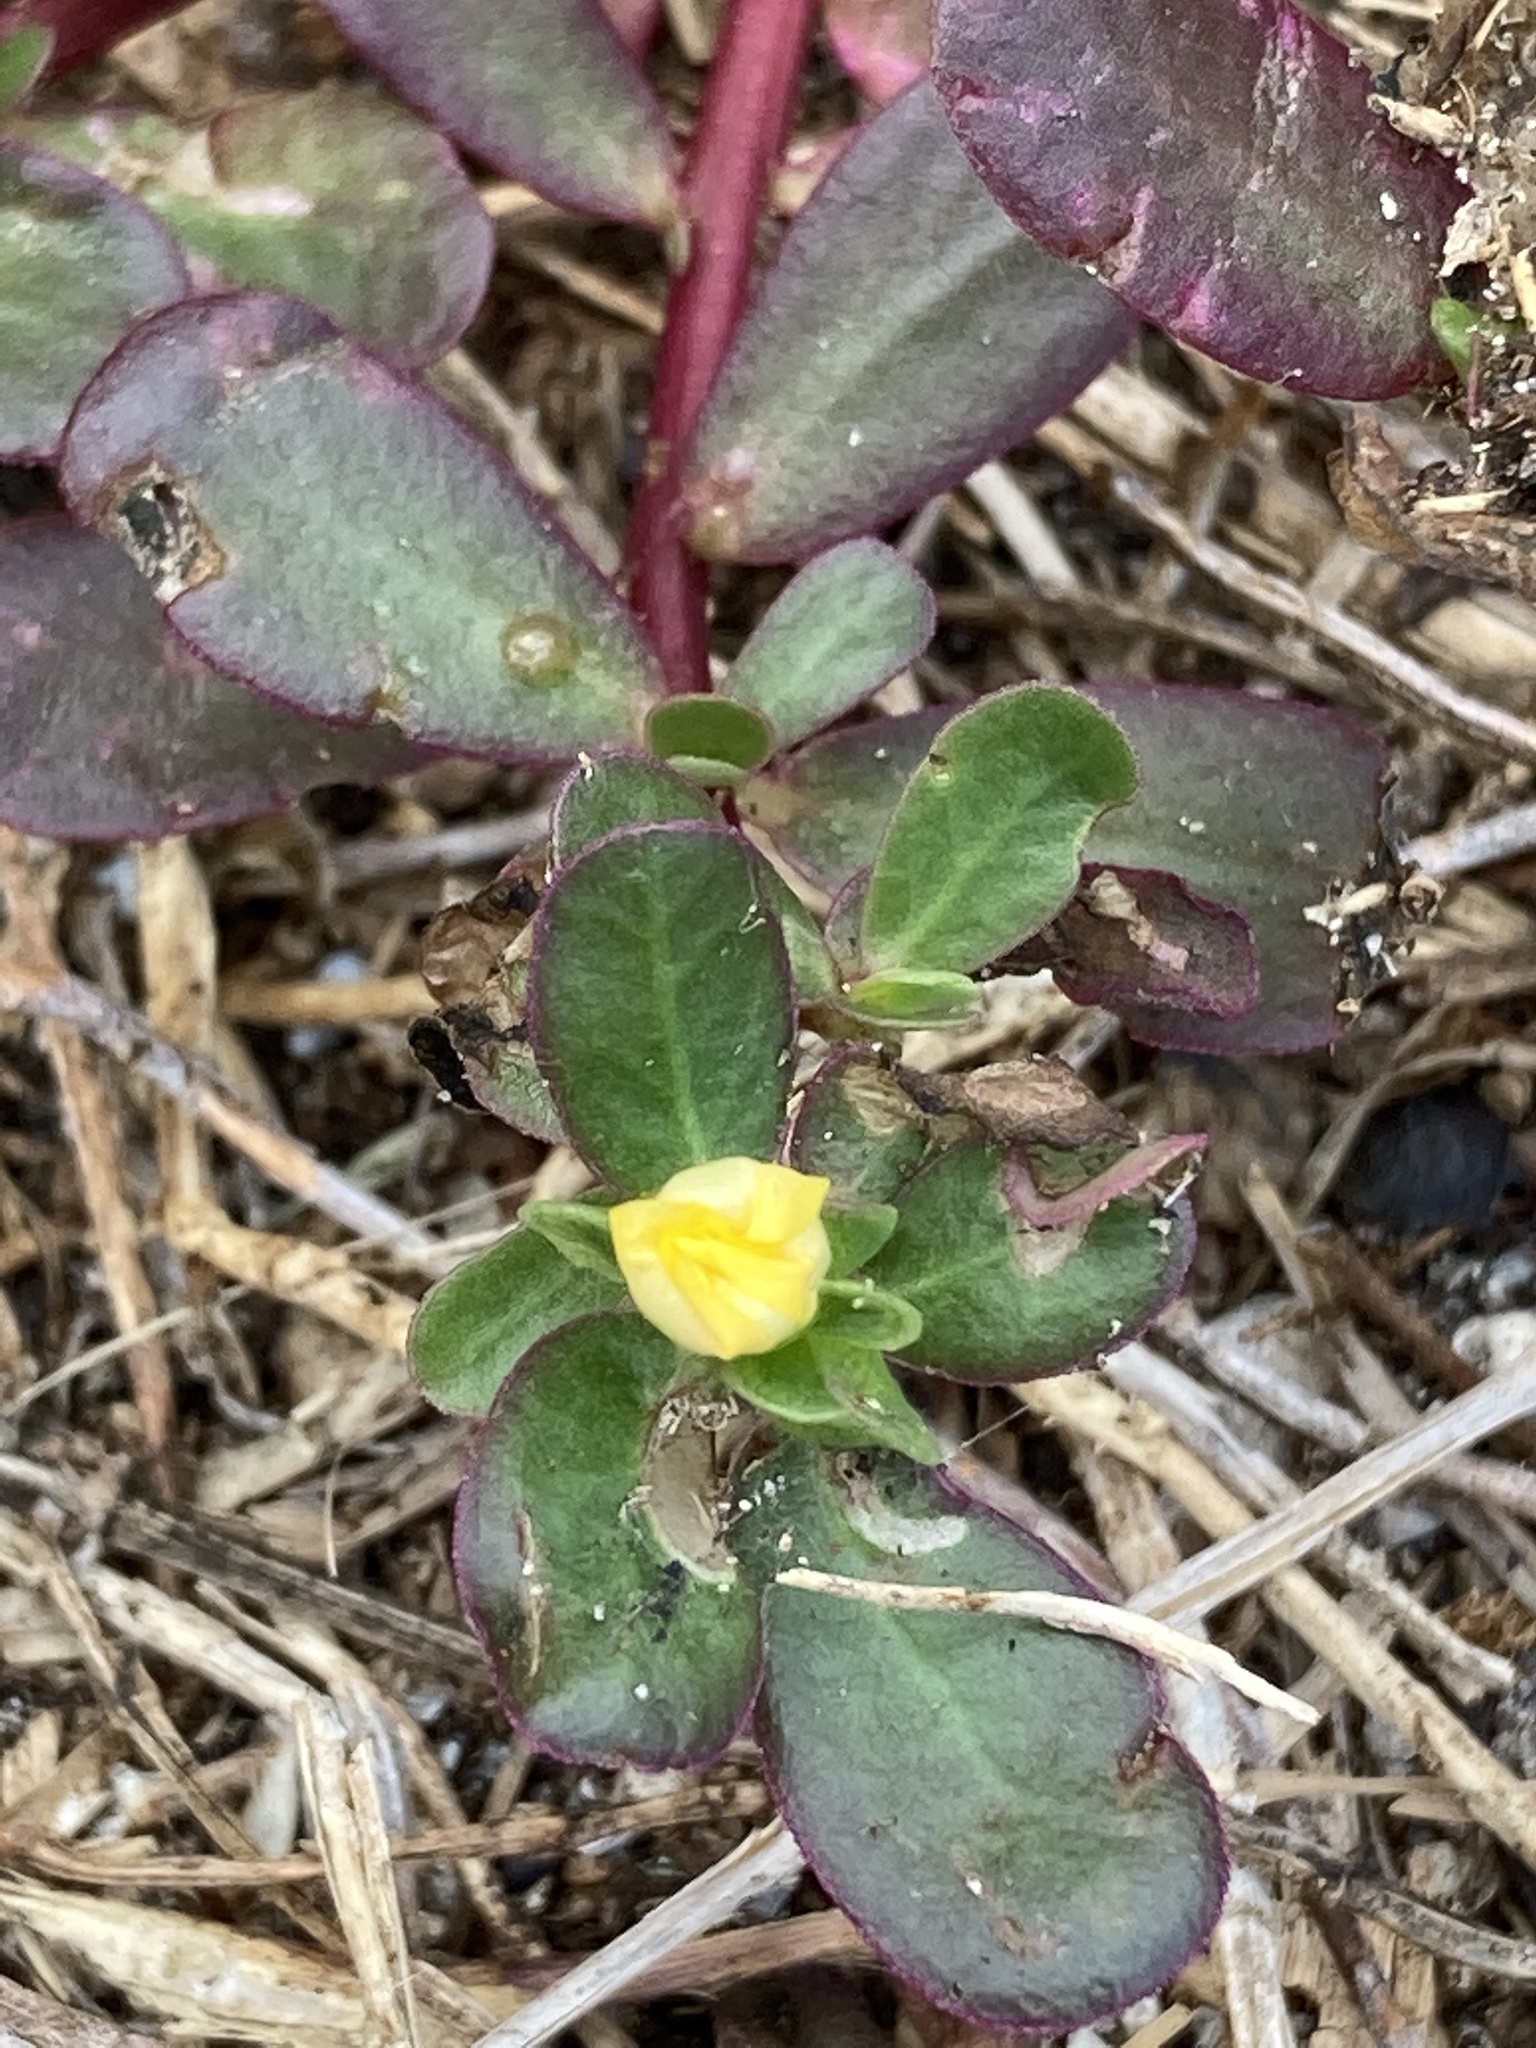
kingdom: Plantae
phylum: Tracheophyta
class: Magnoliopsida
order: Caryophyllales
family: Portulacaceae
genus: Portulaca
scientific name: Portulaca oleracea
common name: Common purslane
